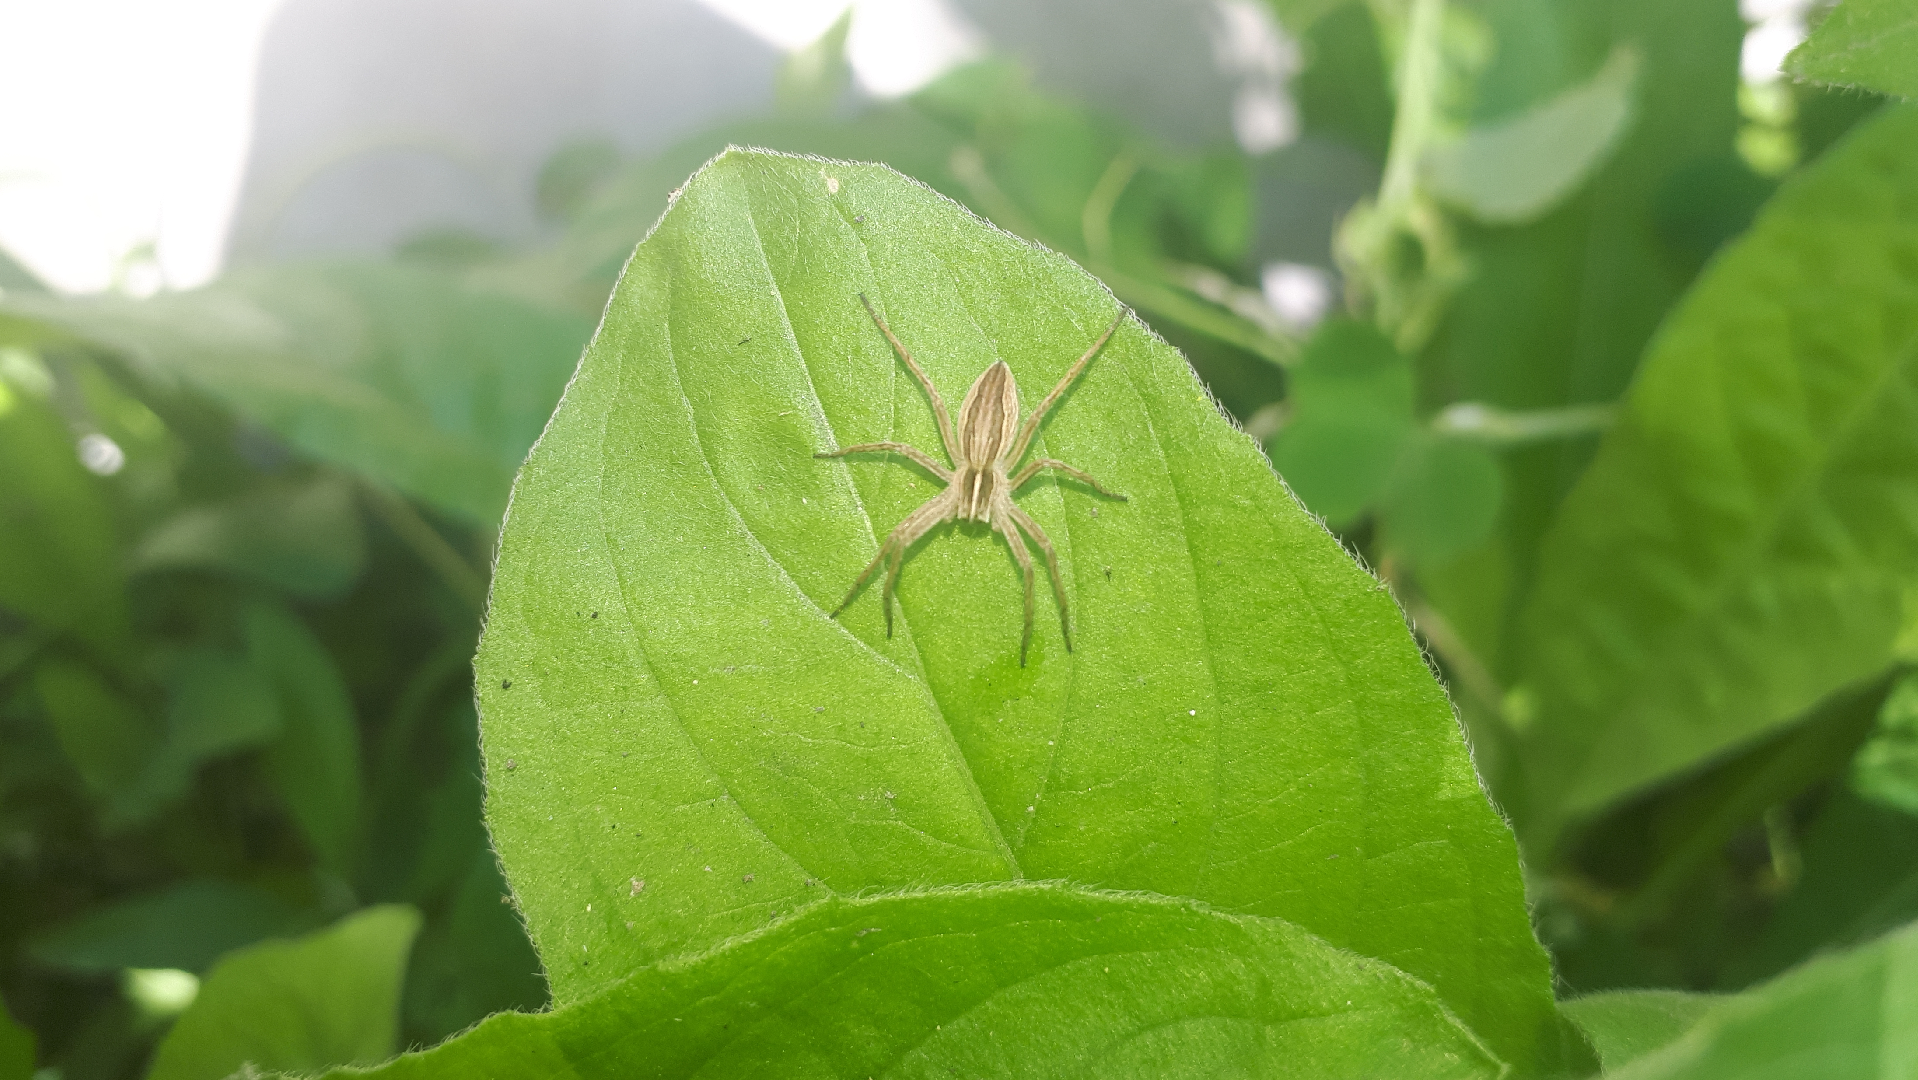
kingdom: Animalia
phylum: Arthropoda
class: Arachnida
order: Araneae
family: Pisauridae
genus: Pisaura
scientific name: Pisaura mirabilis
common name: Tent spider
